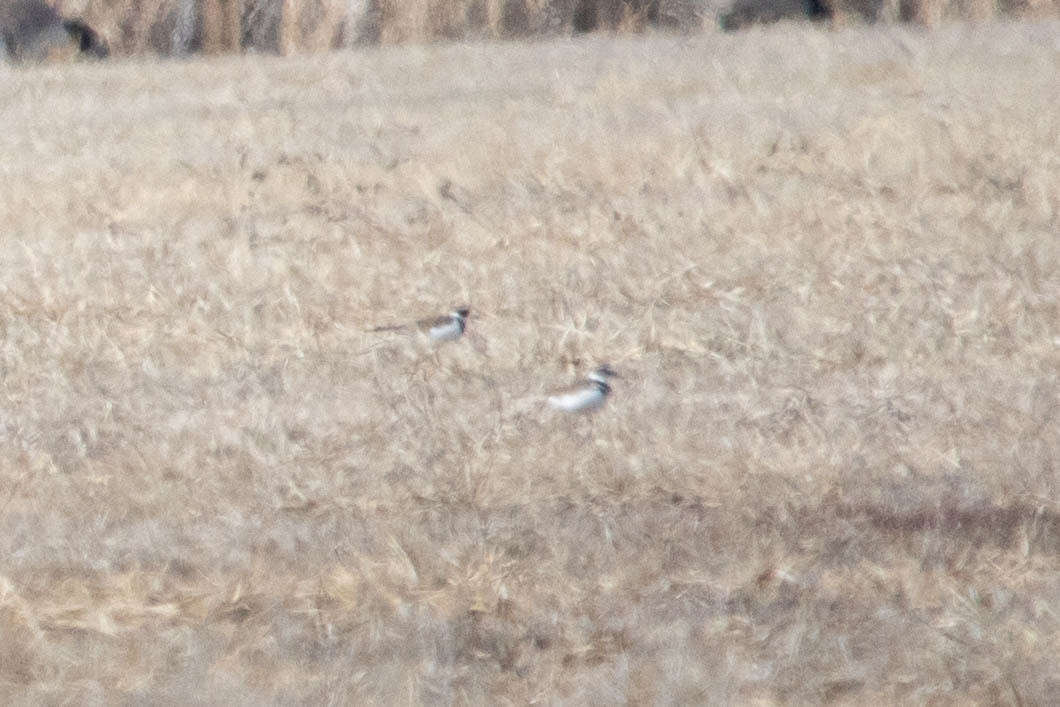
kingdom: Animalia
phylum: Chordata
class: Aves
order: Charadriiformes
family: Charadriidae
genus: Charadrius
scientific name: Charadrius vociferus
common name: Killdeer
